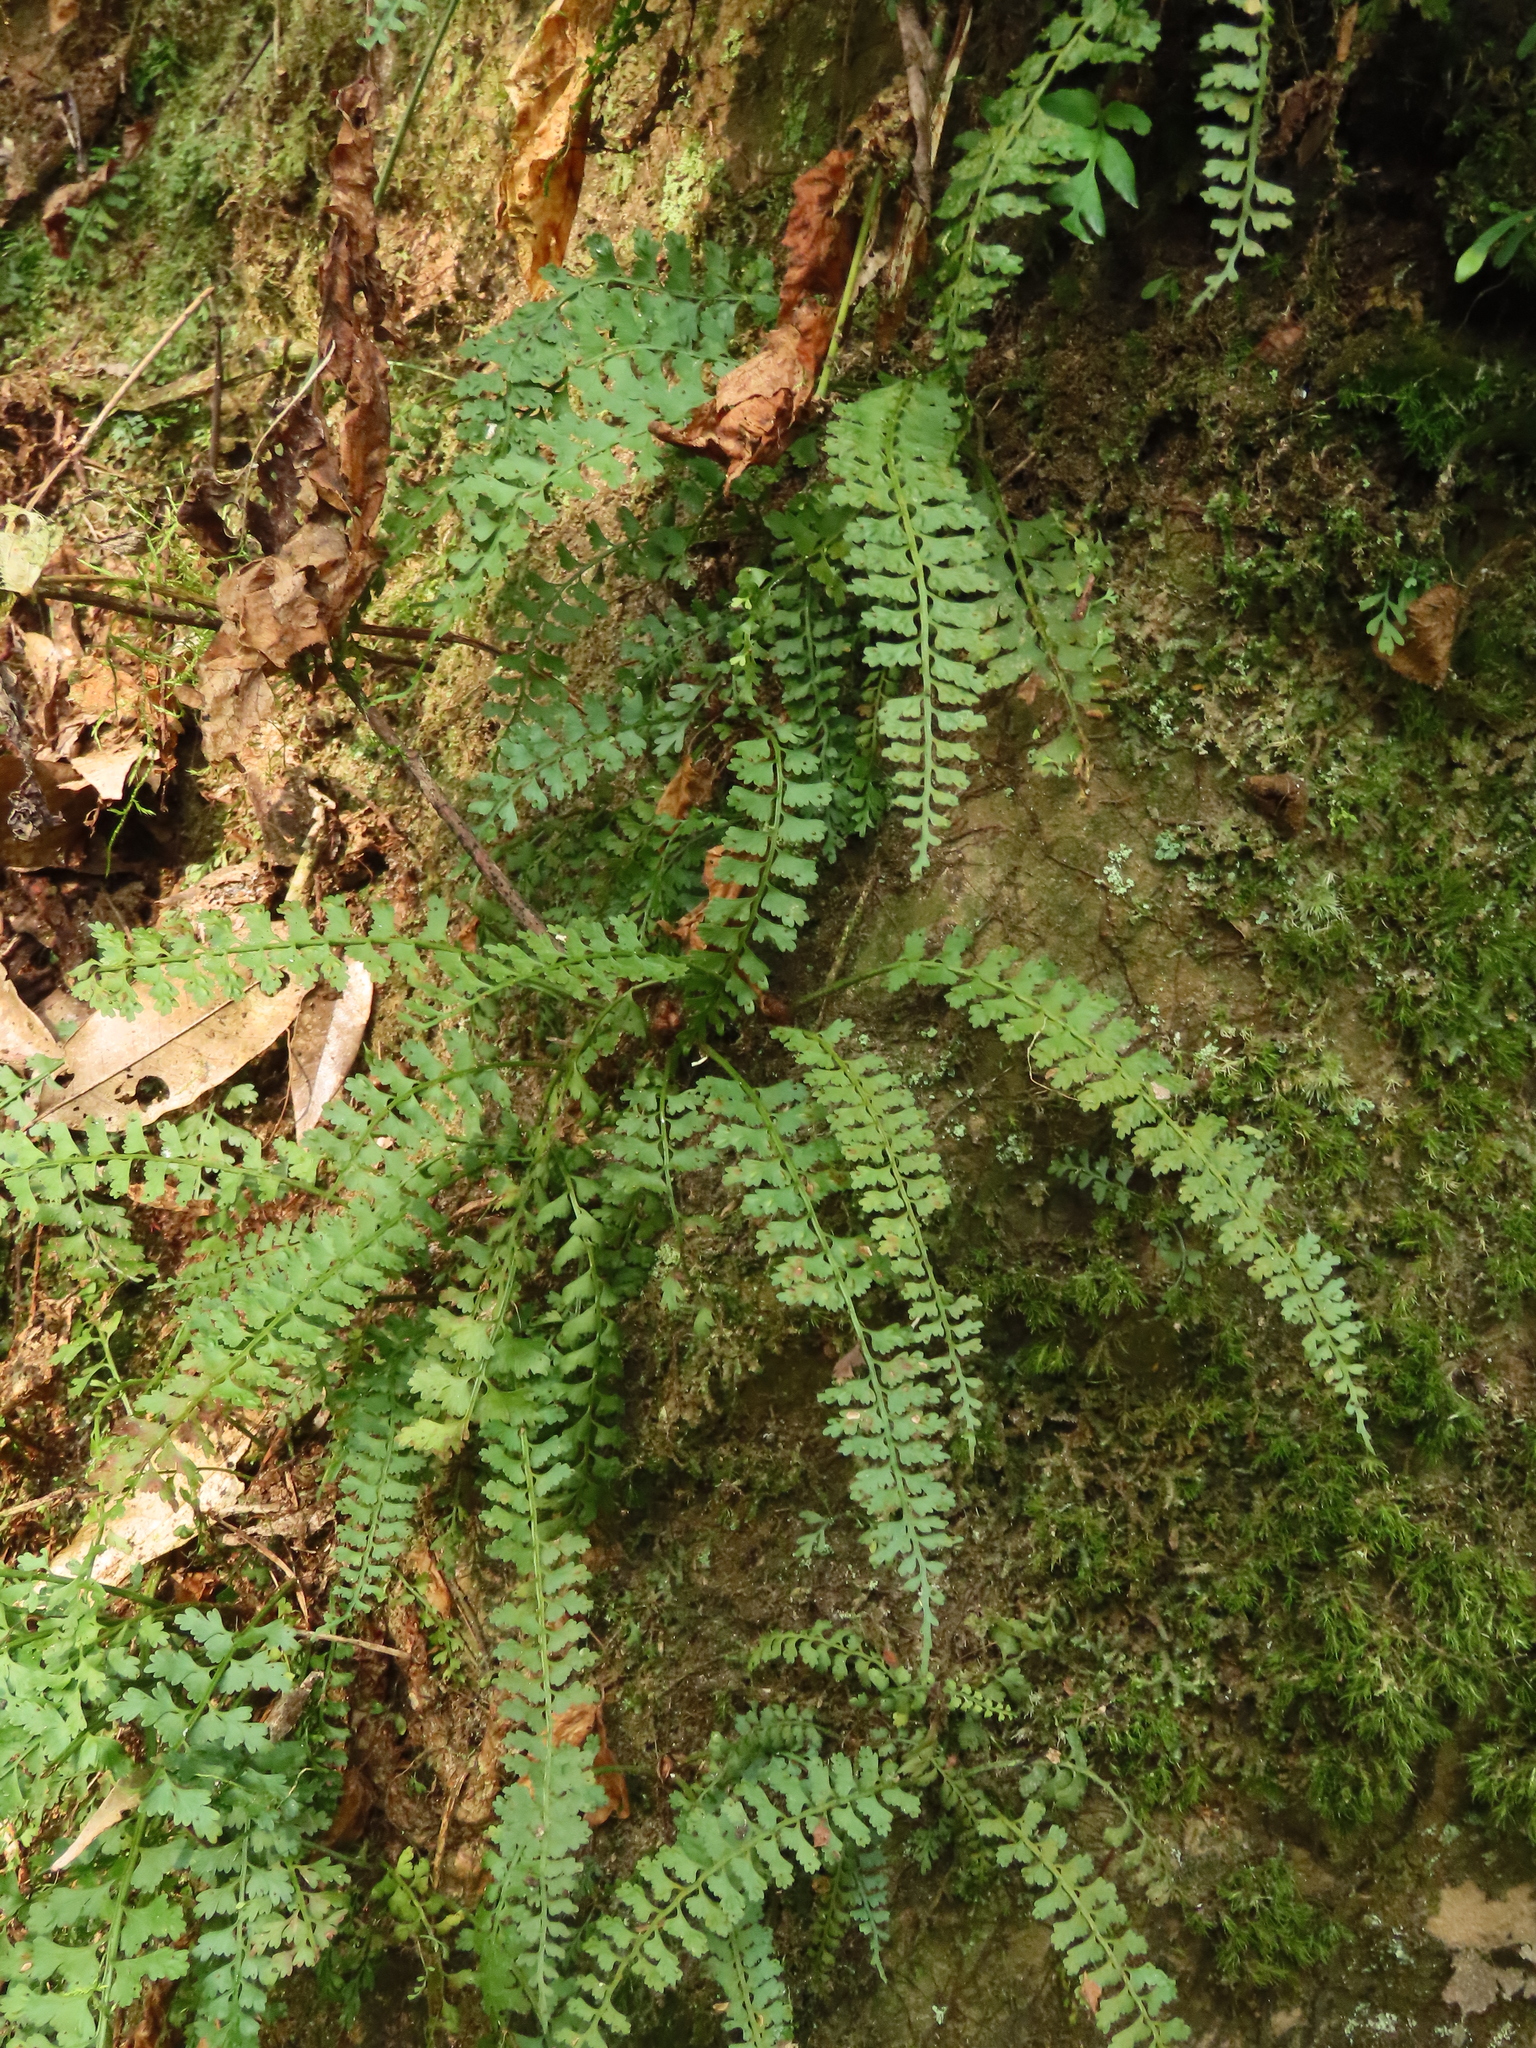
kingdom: Plantae
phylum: Tracheophyta
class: Polypodiopsida
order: Polypodiales
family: Aspleniaceae
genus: Asplenium
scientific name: Asplenium gueinzianum
